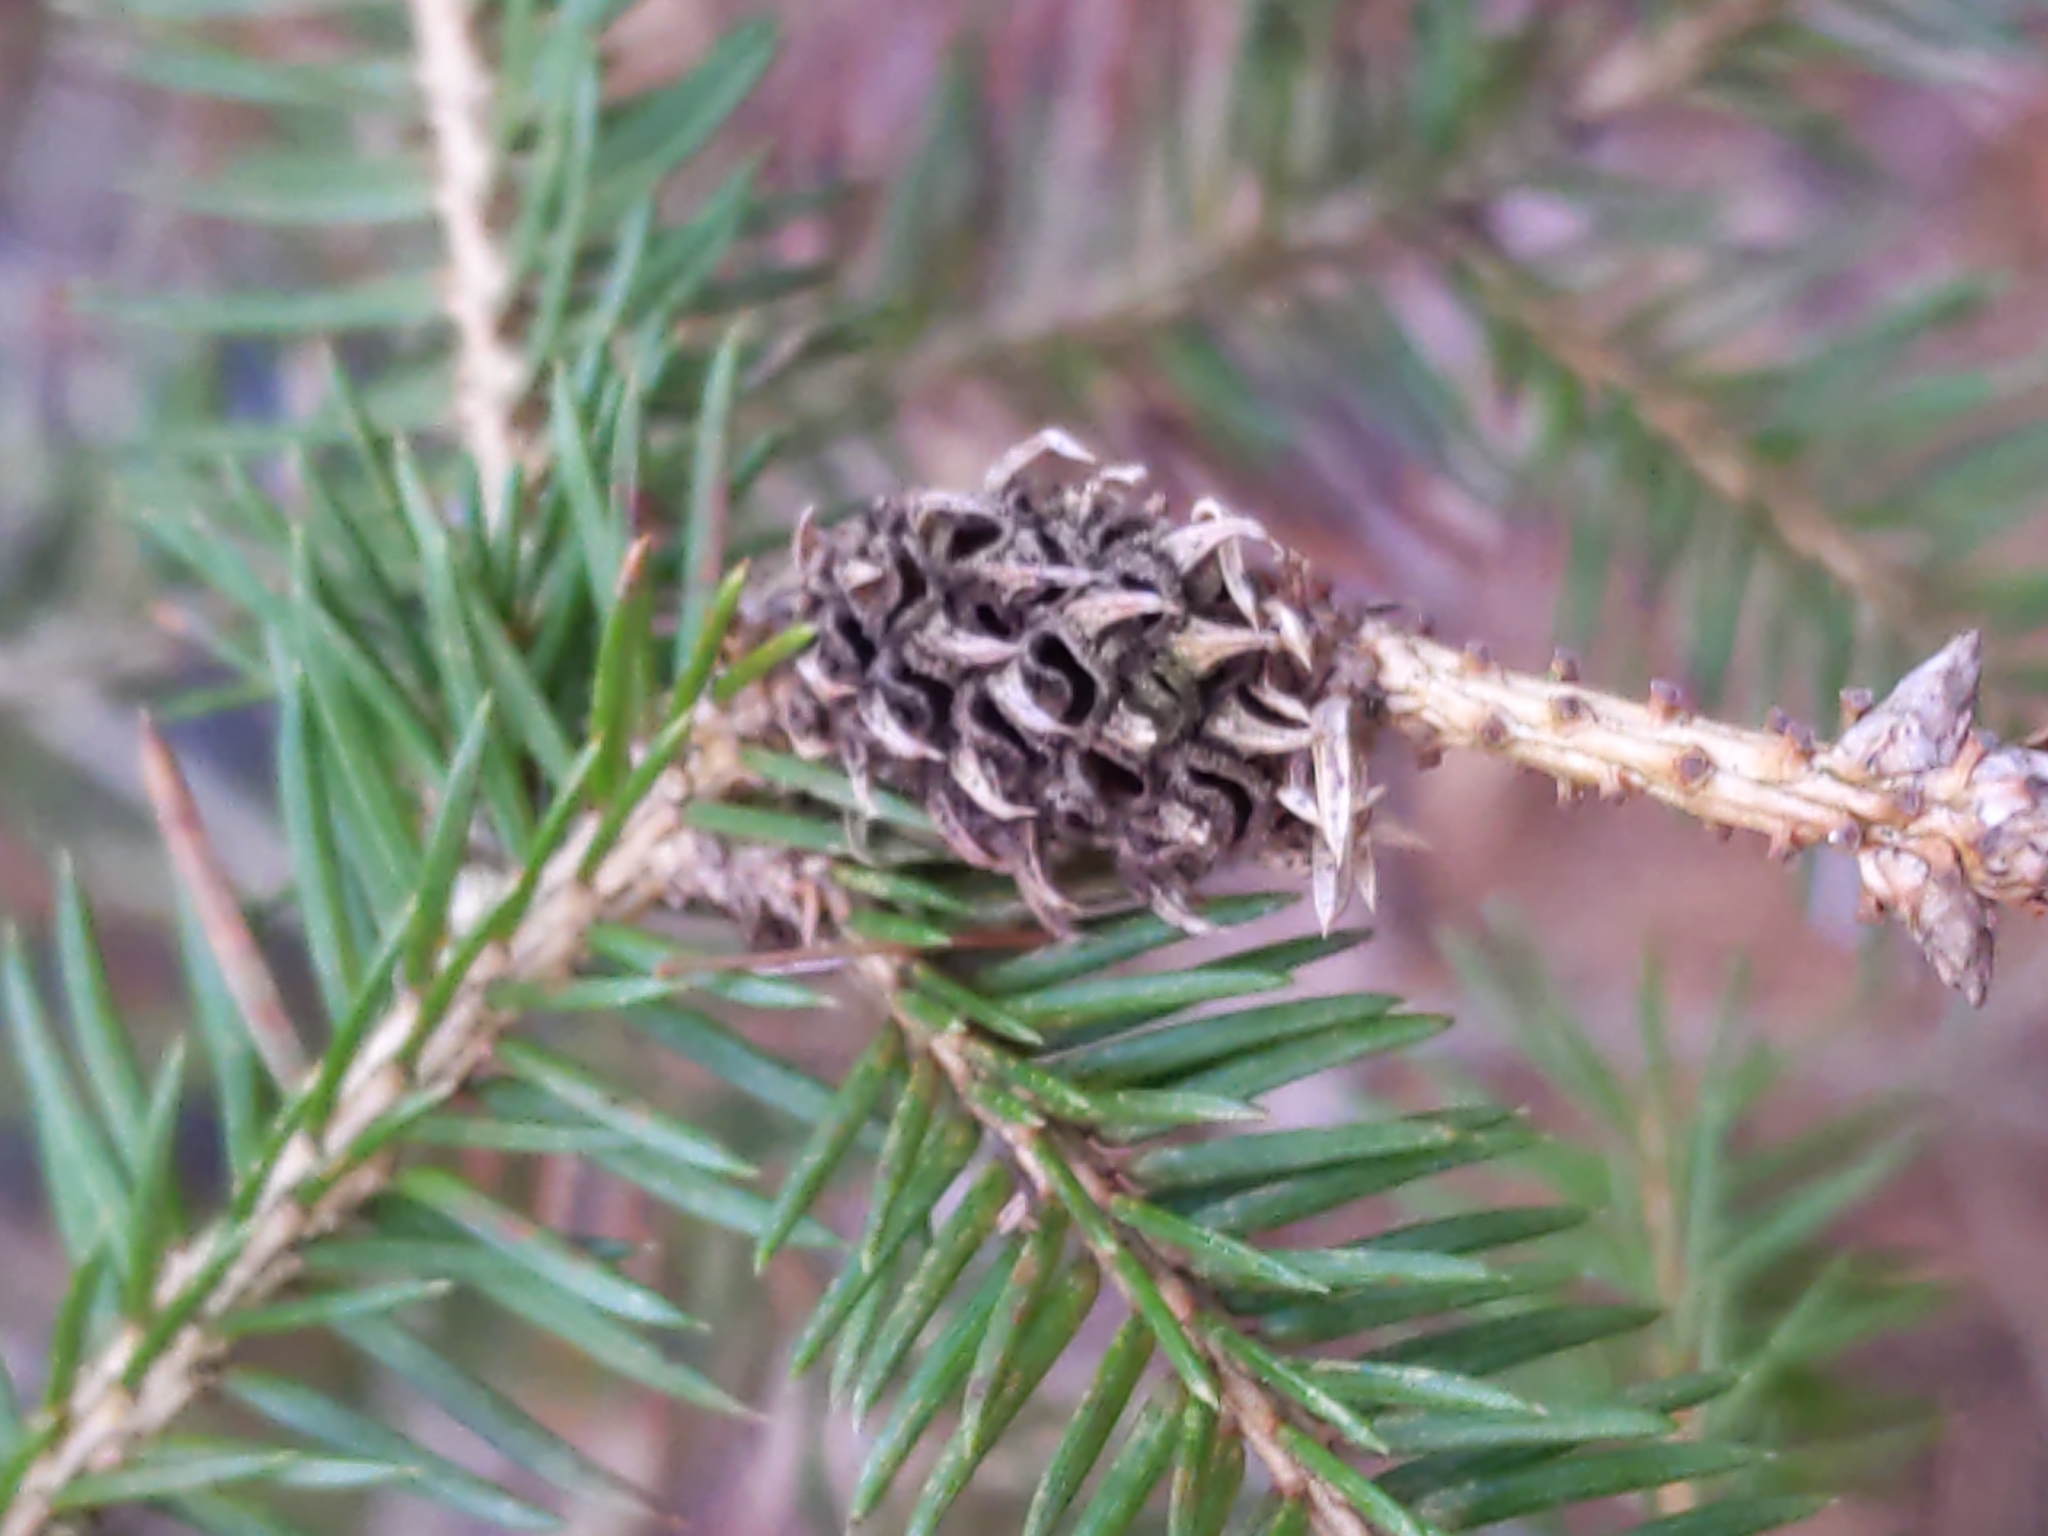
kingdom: Animalia
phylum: Arthropoda
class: Insecta
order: Hemiptera
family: Adelgidae
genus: Adelges
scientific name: Adelges abietis
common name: Eastern spruce gall adelgid
